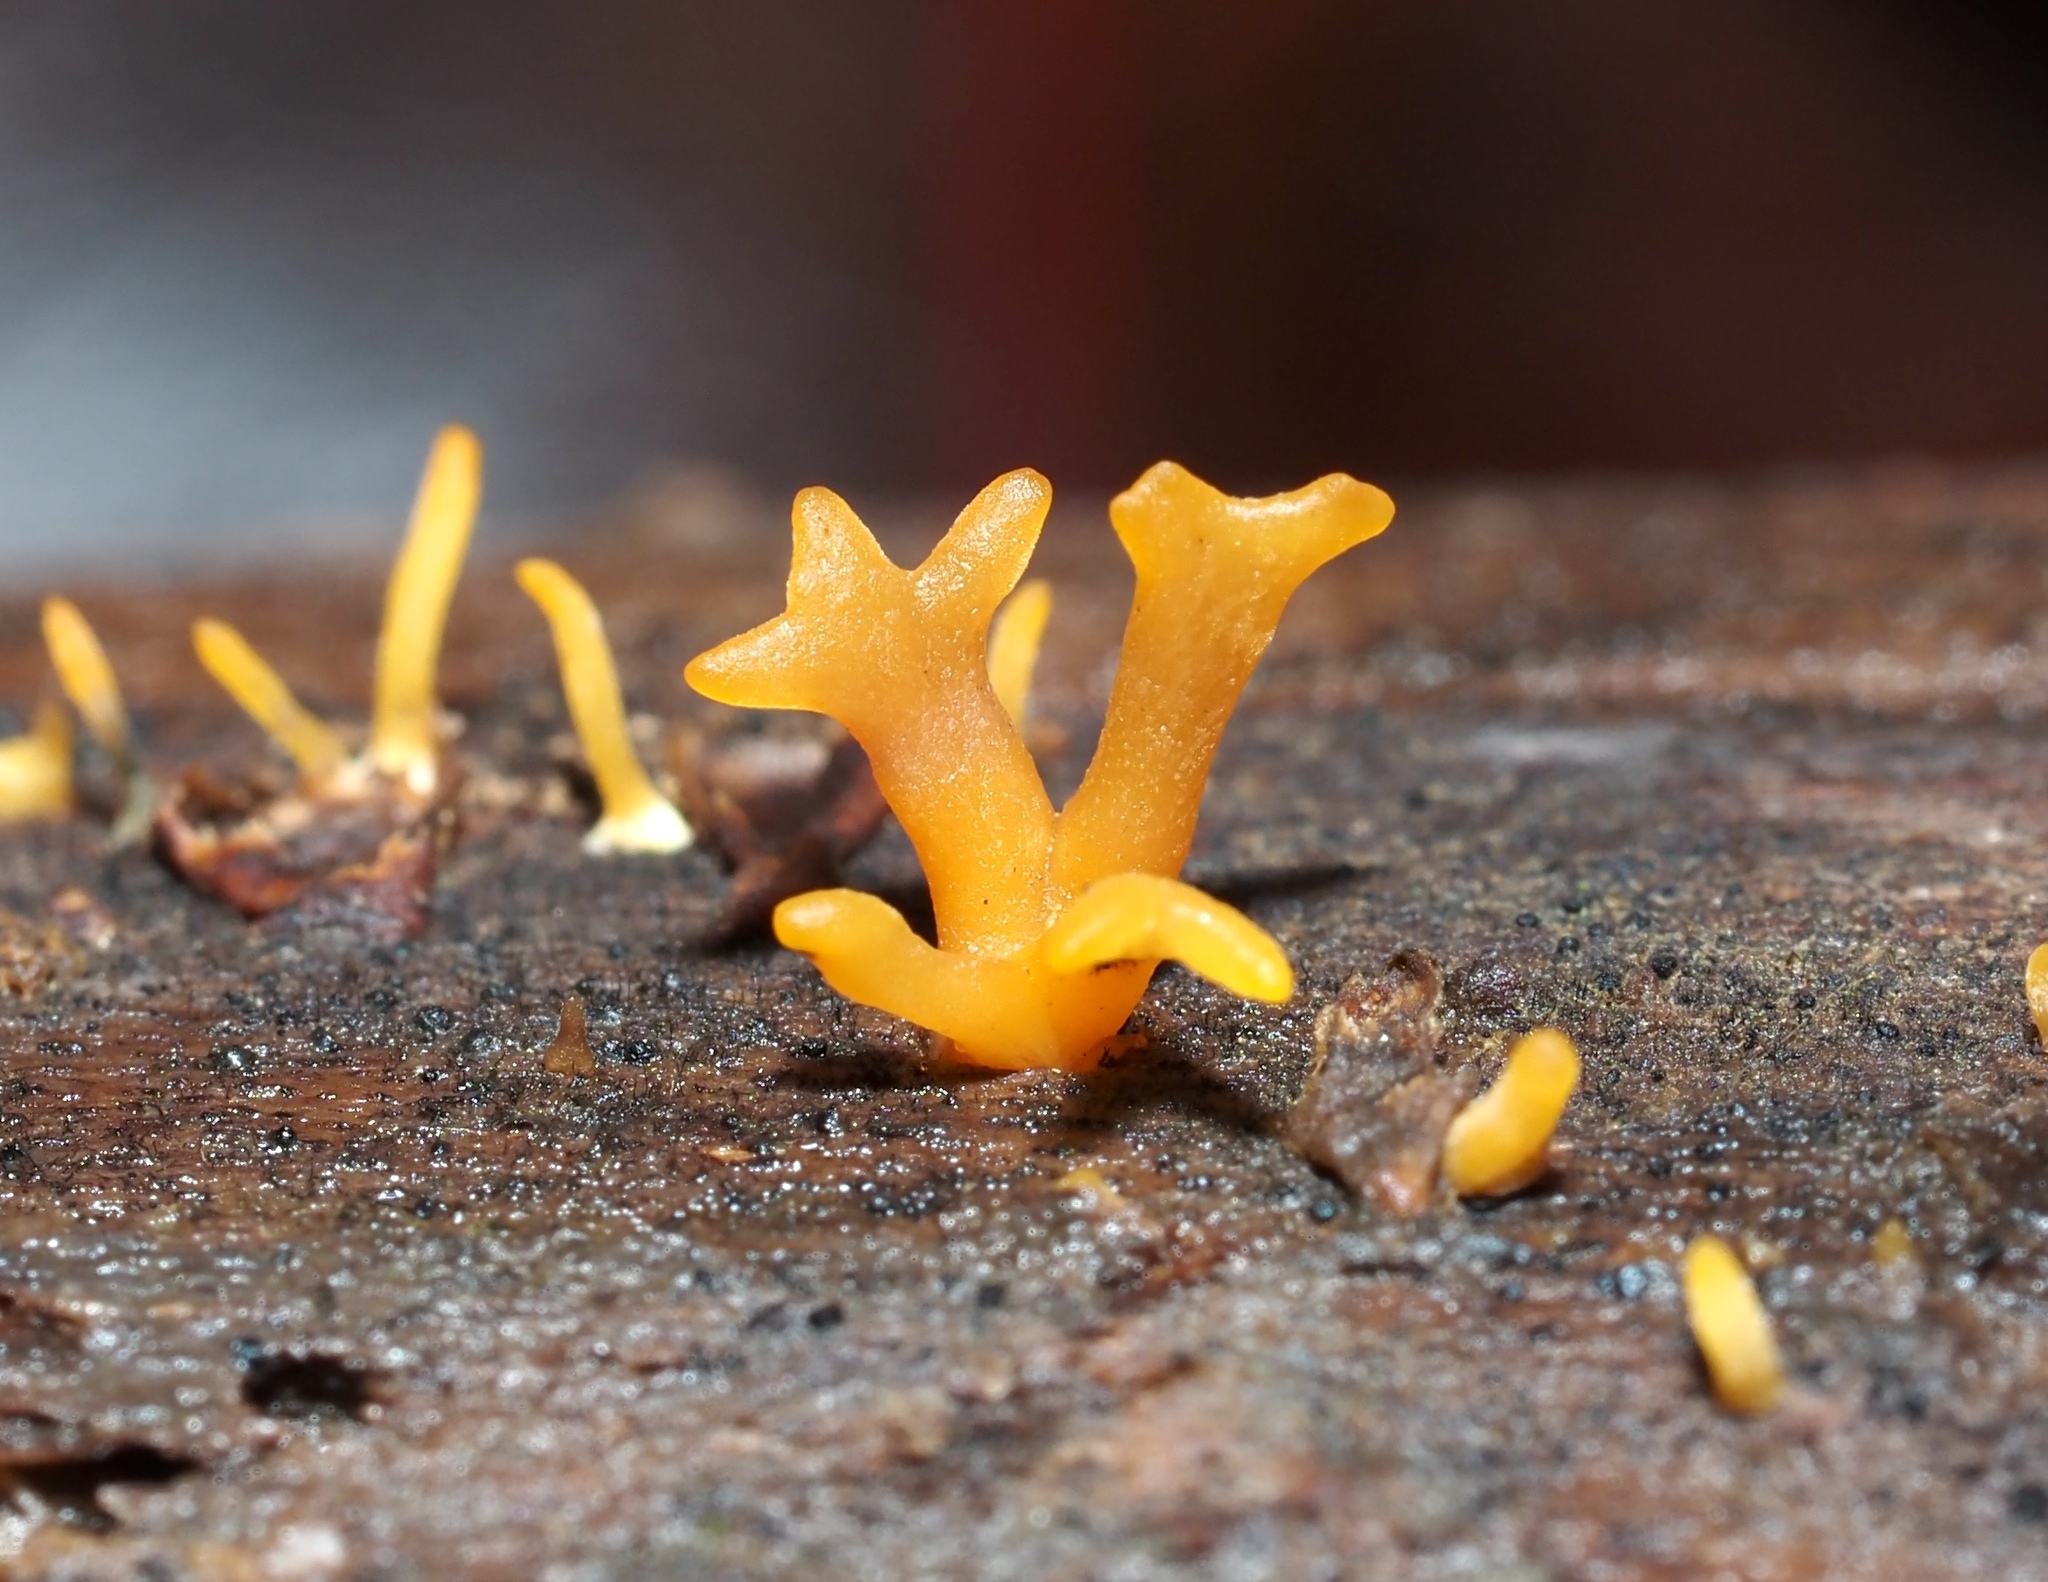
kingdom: Fungi
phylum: Basidiomycota
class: Dacrymycetes
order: Dacrymycetales
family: Dacrymycetaceae
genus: Calocera
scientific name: Calocera cornea
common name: Small stagshorn
